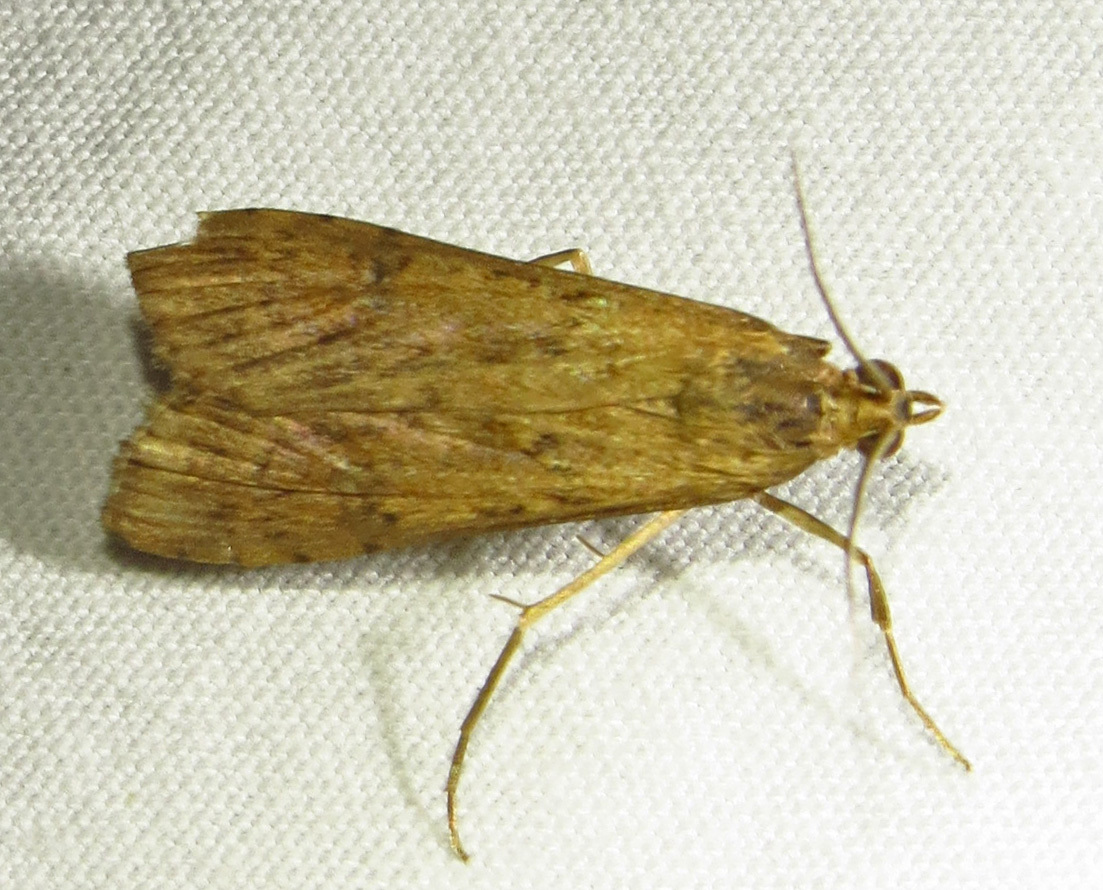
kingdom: Animalia
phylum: Arthropoda
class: Insecta
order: Lepidoptera
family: Crambidae
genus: Nomophila
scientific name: Nomophila nearctica
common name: American rush veneer
